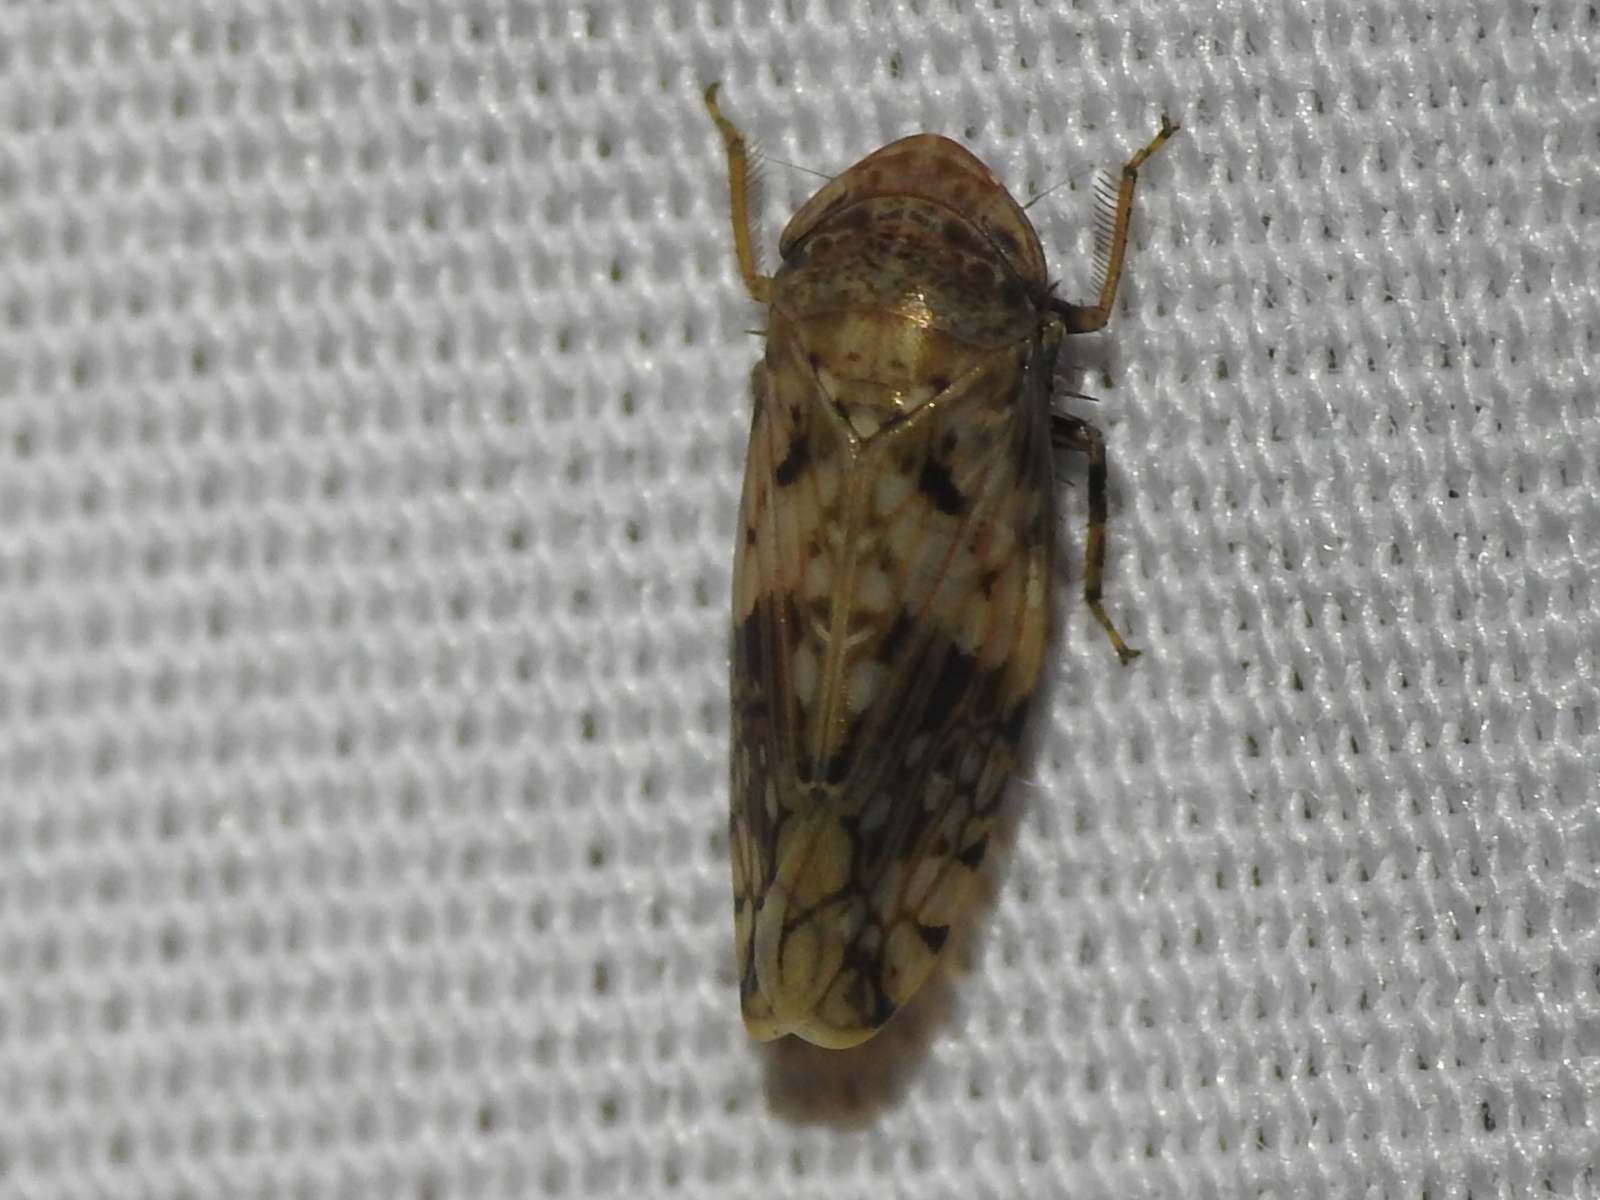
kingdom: Animalia
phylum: Arthropoda
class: Insecta
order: Hemiptera
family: Cicadellidae
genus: Menosoma
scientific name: Menosoma cinctum
